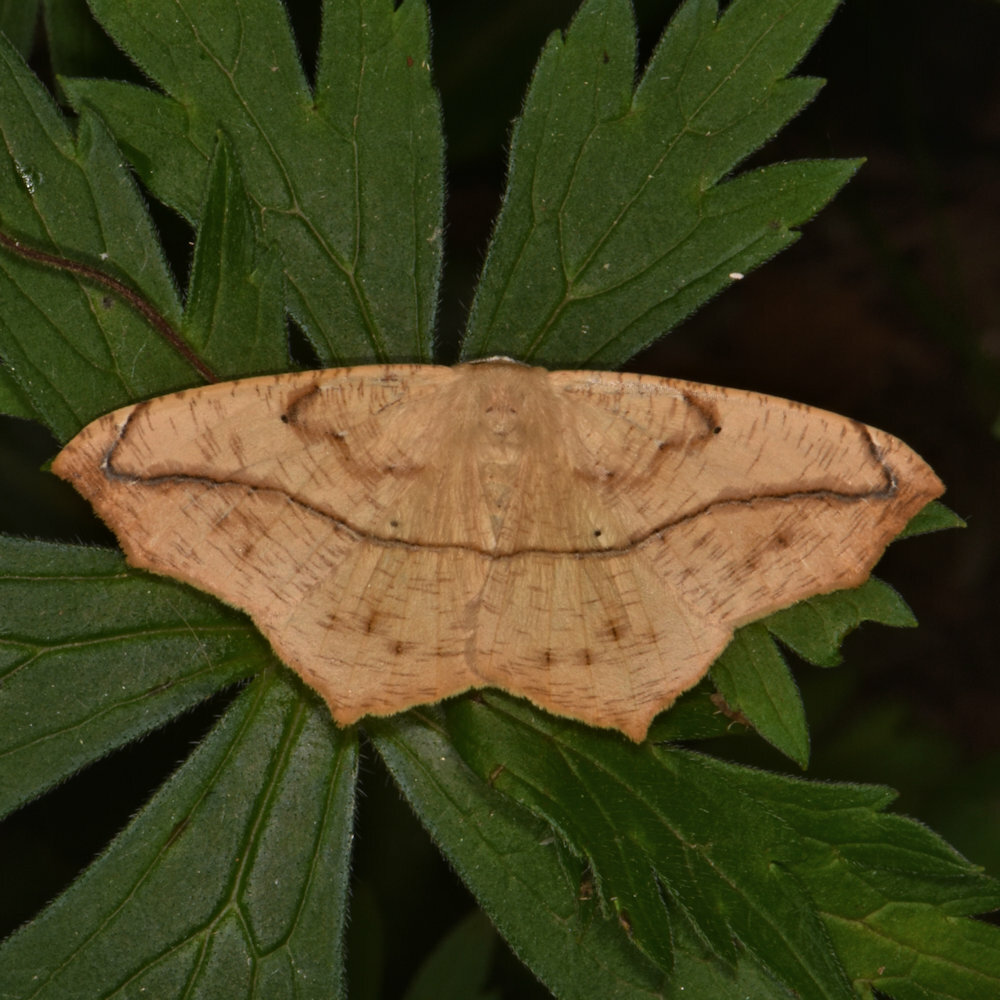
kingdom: Animalia
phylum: Arthropoda
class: Insecta
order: Lepidoptera
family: Geometridae
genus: Prochoerodes
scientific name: Prochoerodes lineola
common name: Large maple spanworm
